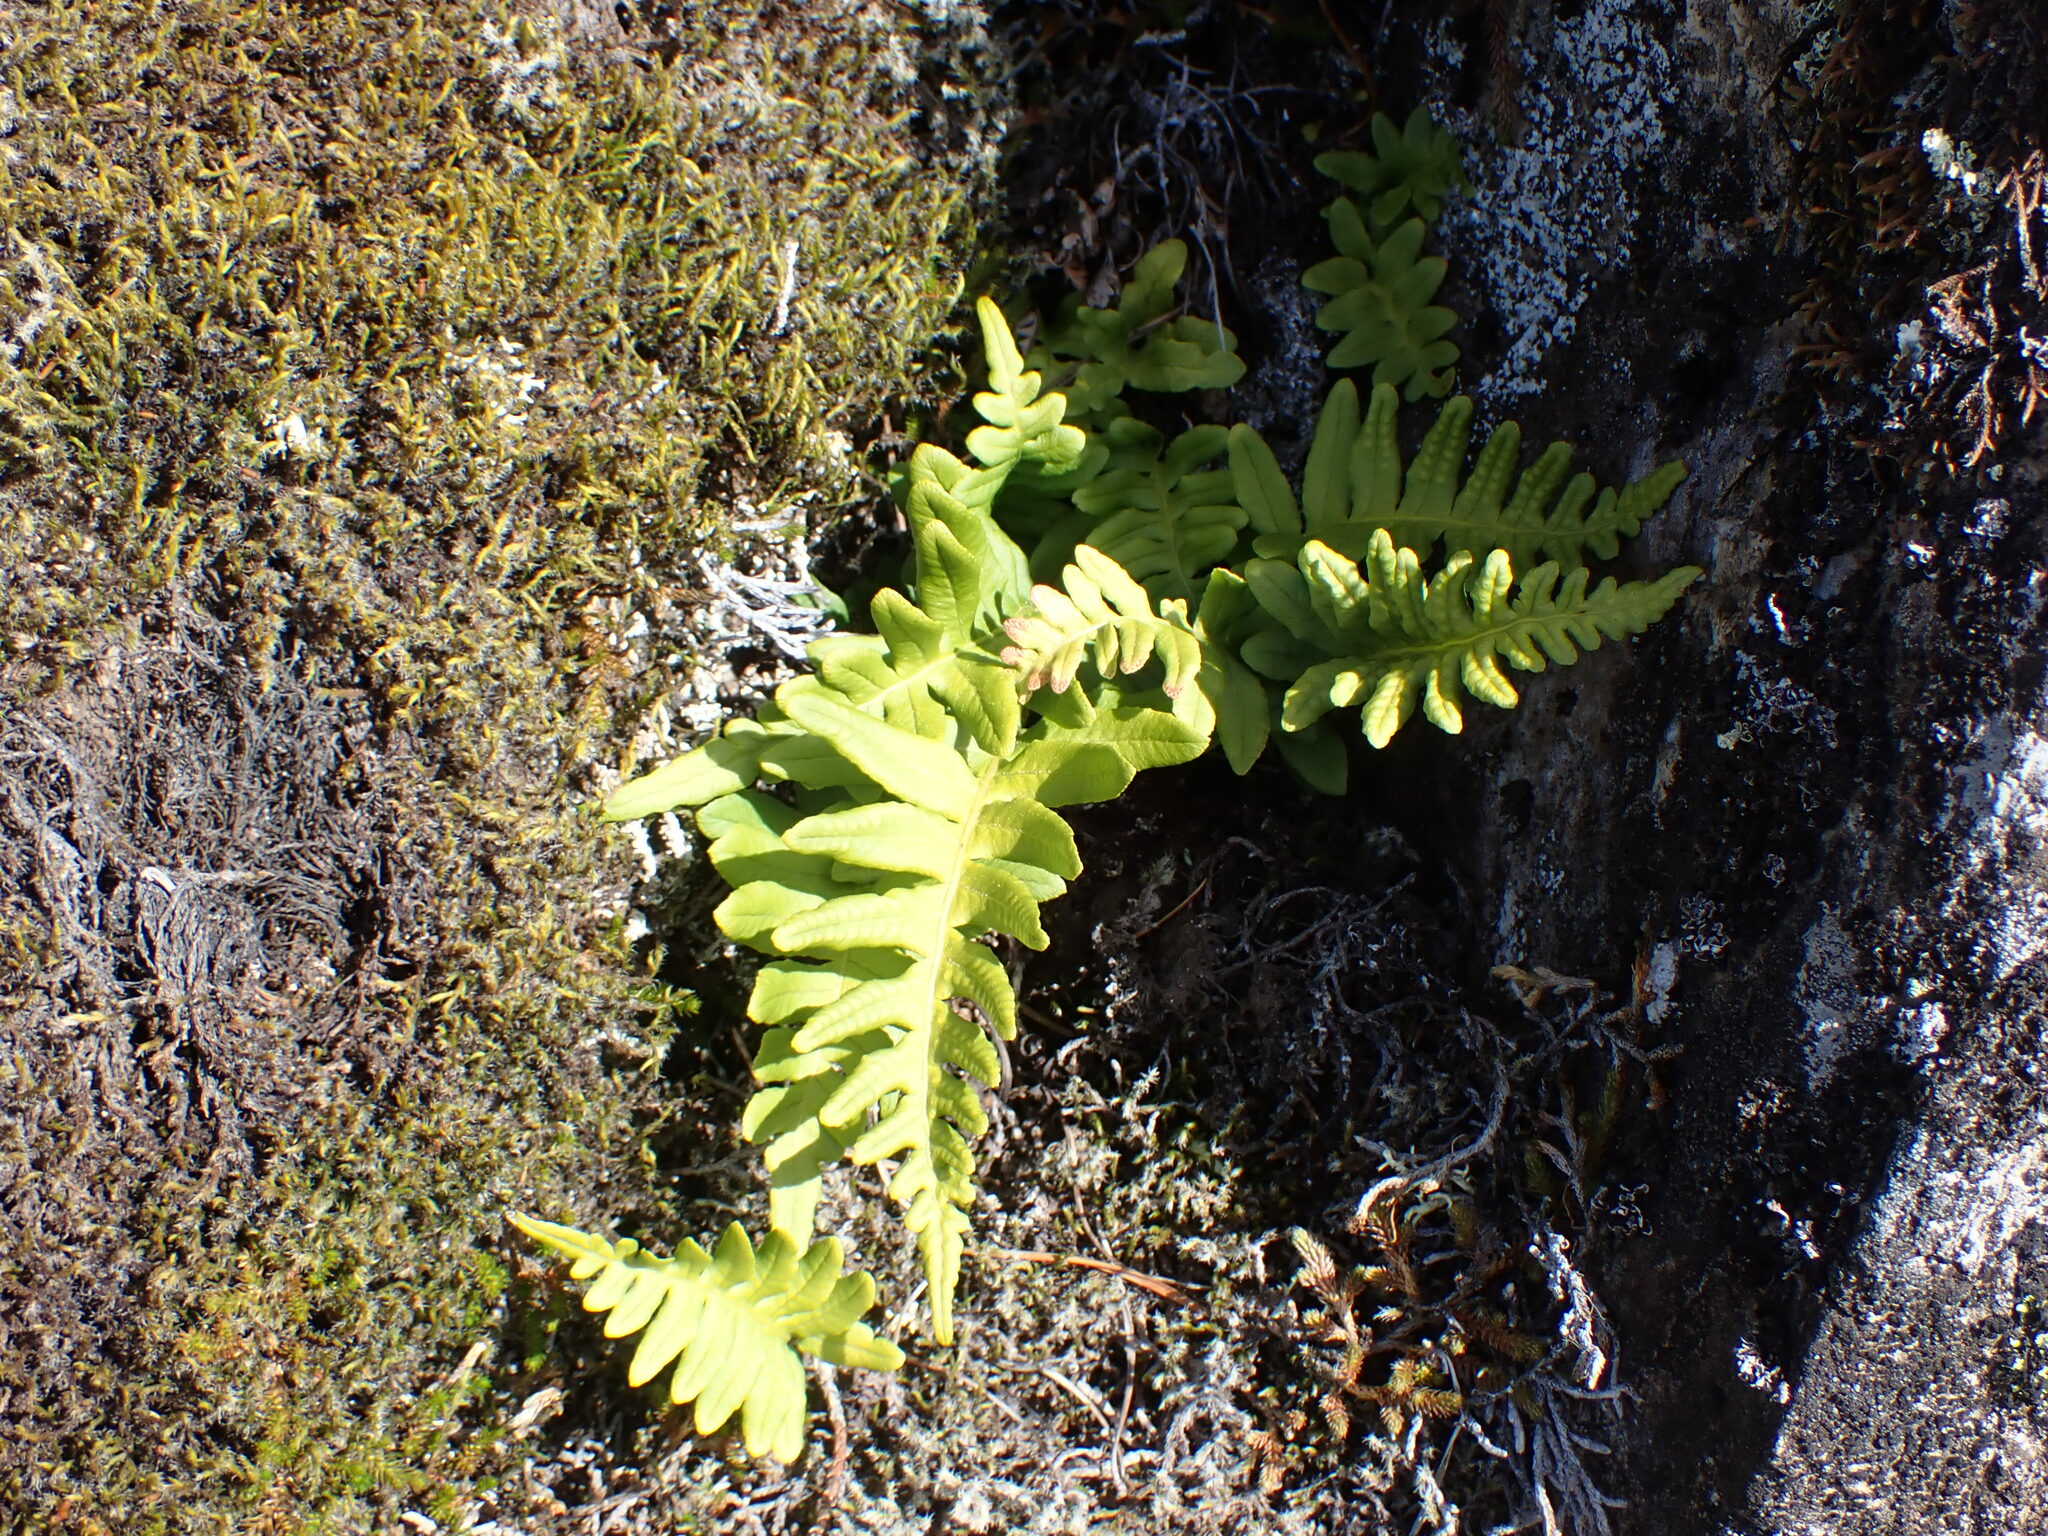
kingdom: Plantae
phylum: Tracheophyta
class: Polypodiopsida
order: Polypodiales
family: Polypodiaceae
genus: Polypodium
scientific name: Polypodium glycyrrhiza
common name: Licorice fern
